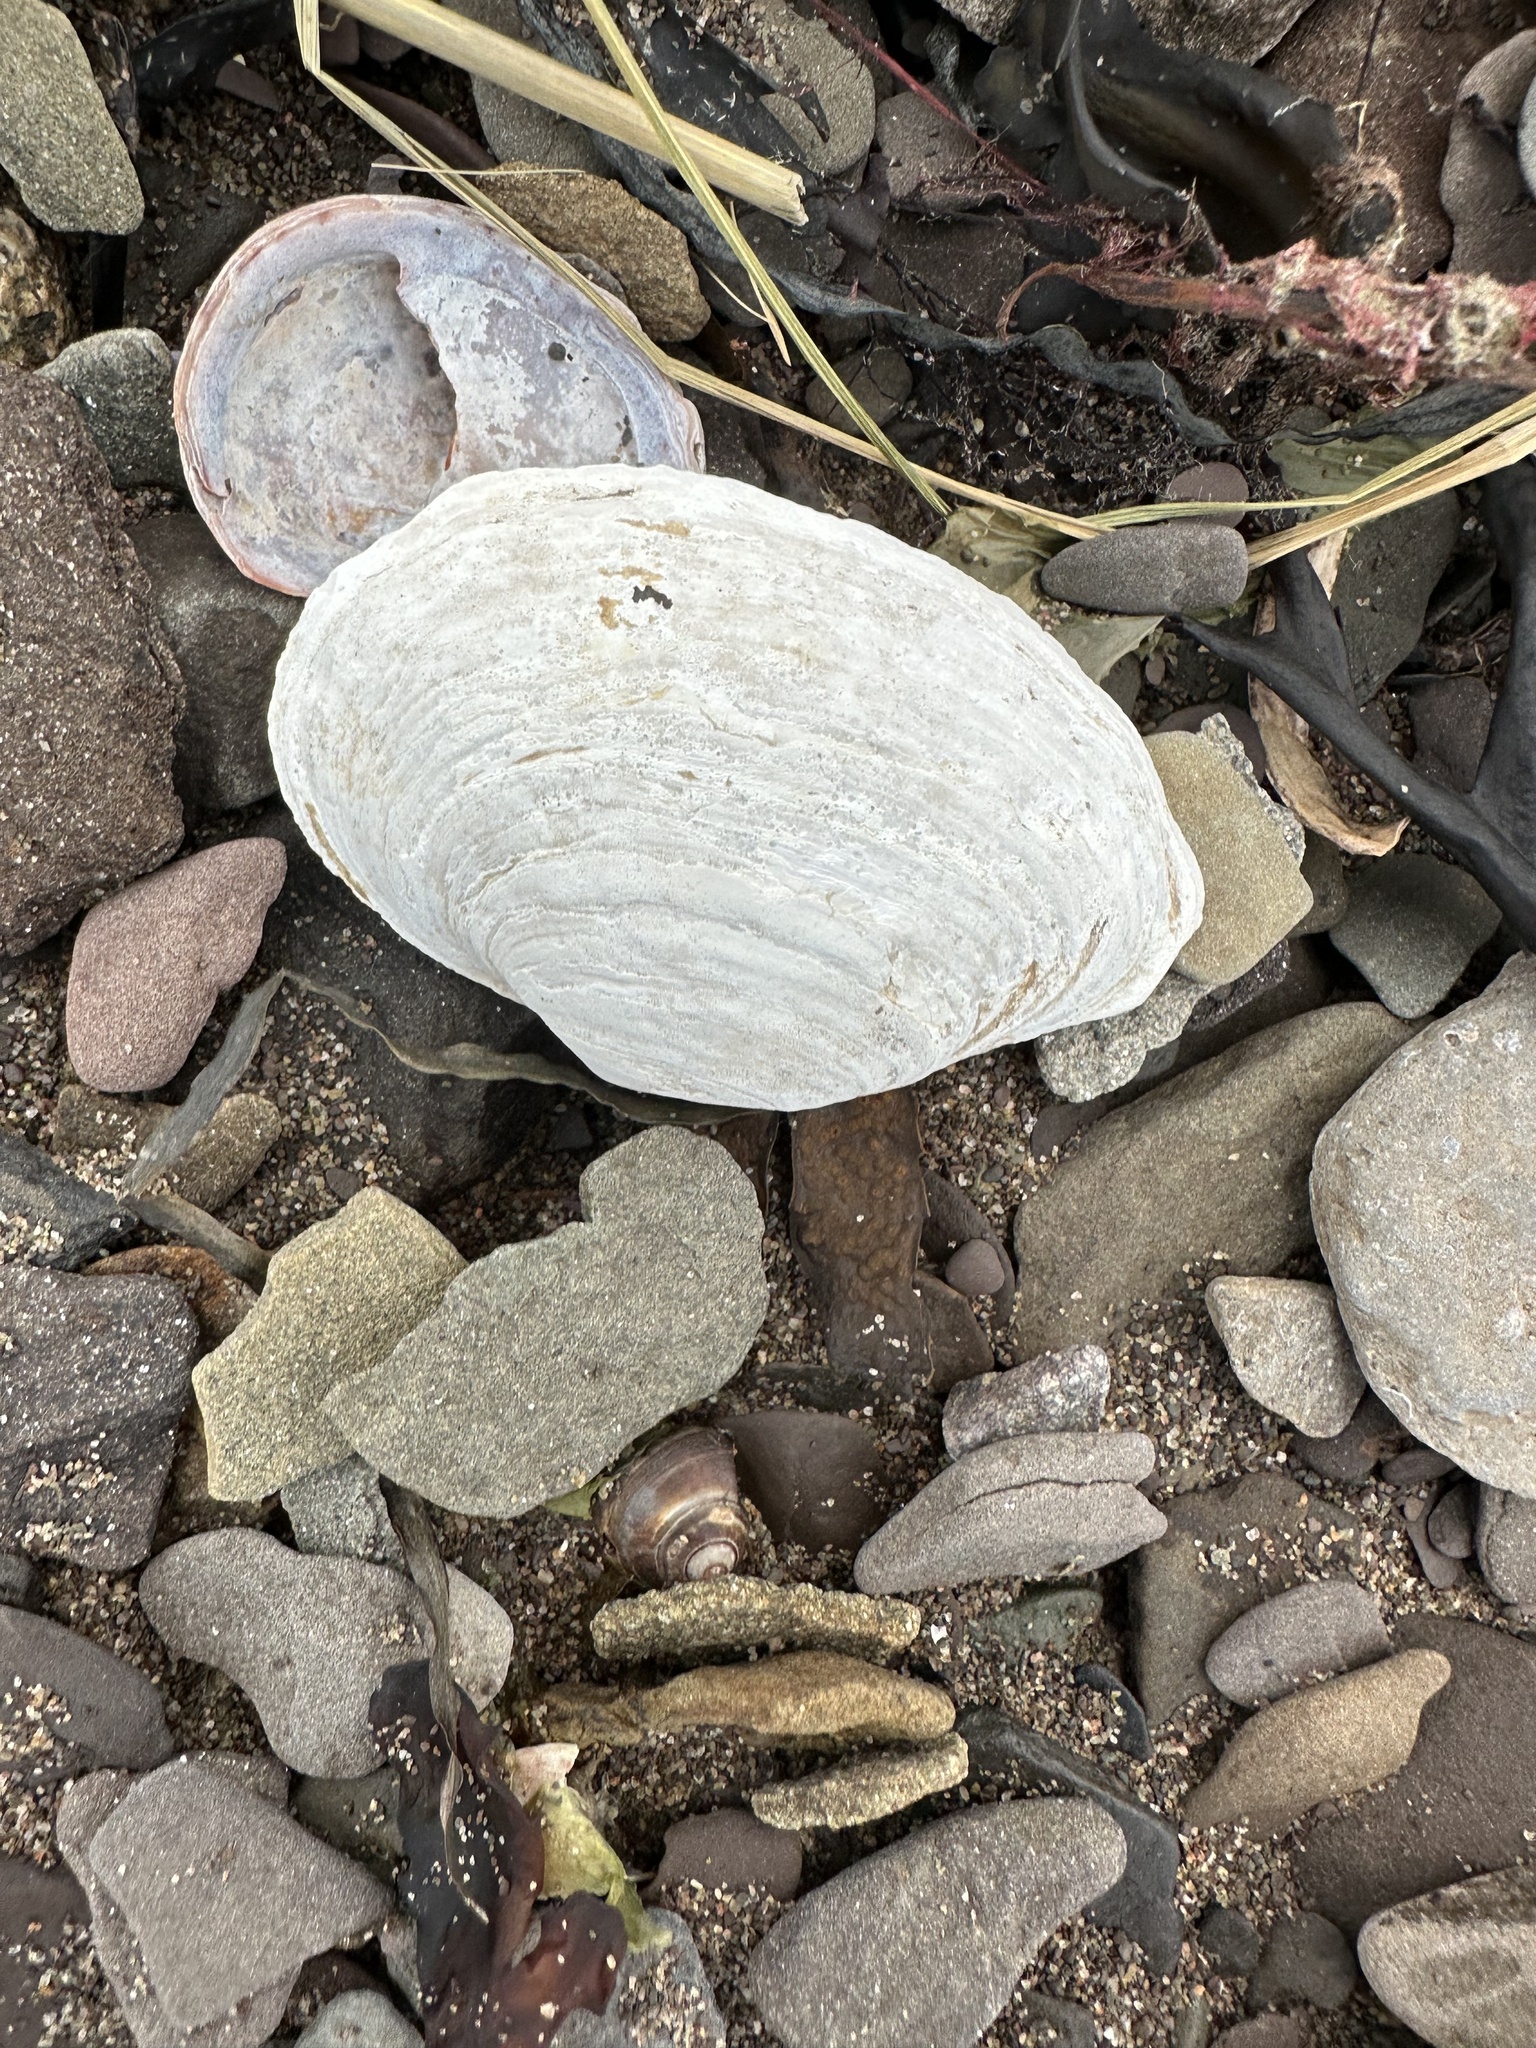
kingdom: Animalia
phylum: Mollusca
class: Bivalvia
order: Myida
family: Myidae
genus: Mya
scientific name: Mya arenaria
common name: Soft-shelled clam
